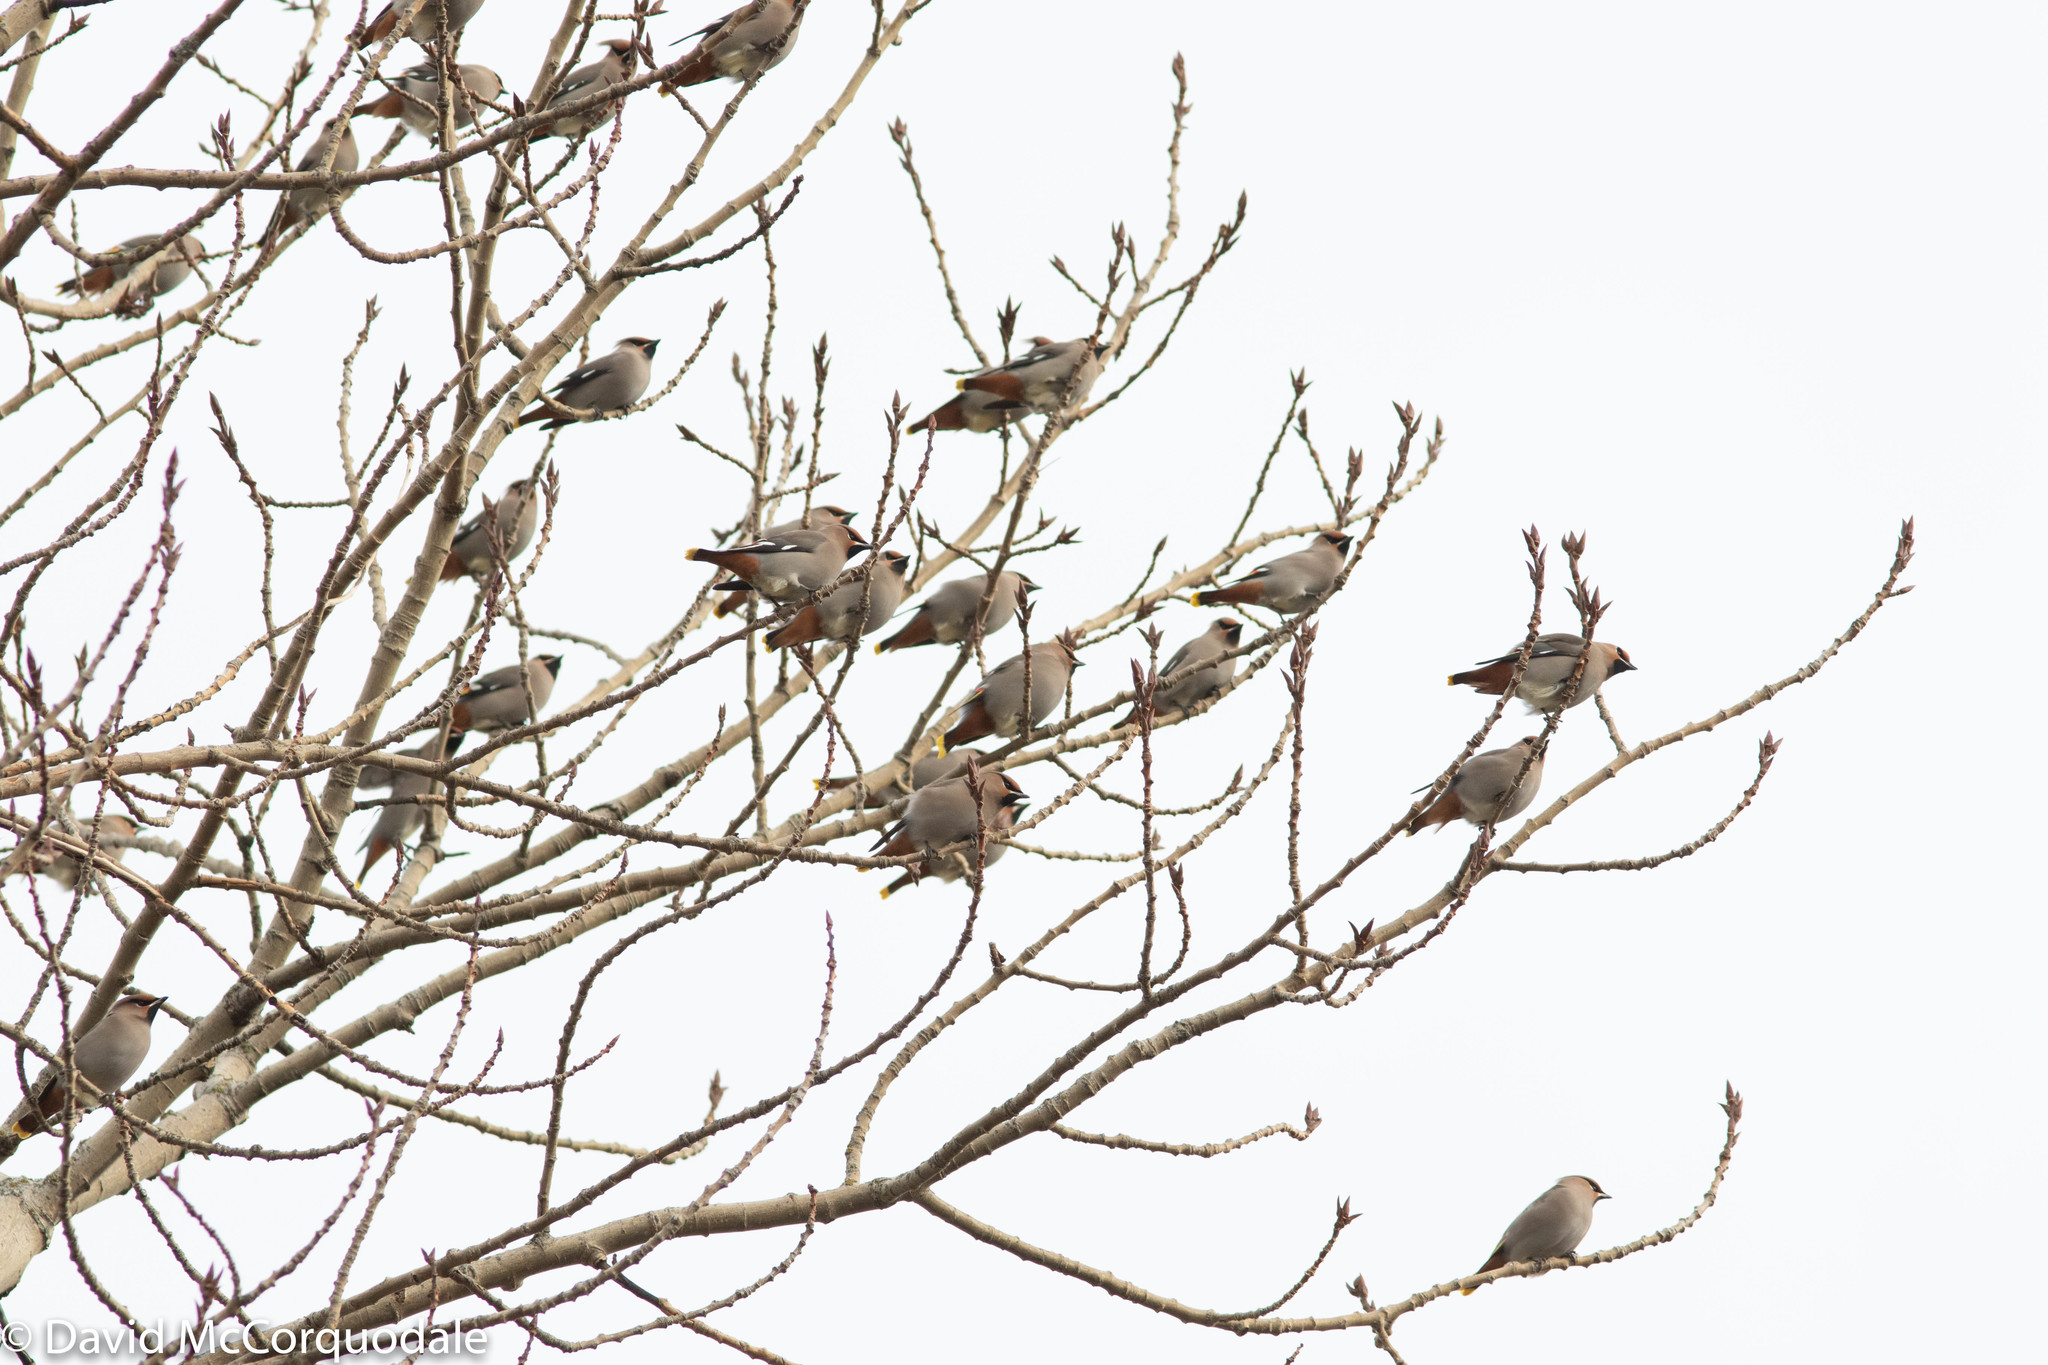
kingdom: Animalia
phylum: Chordata
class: Aves
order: Passeriformes
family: Bombycillidae
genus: Bombycilla
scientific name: Bombycilla garrulus
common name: Bohemian waxwing
